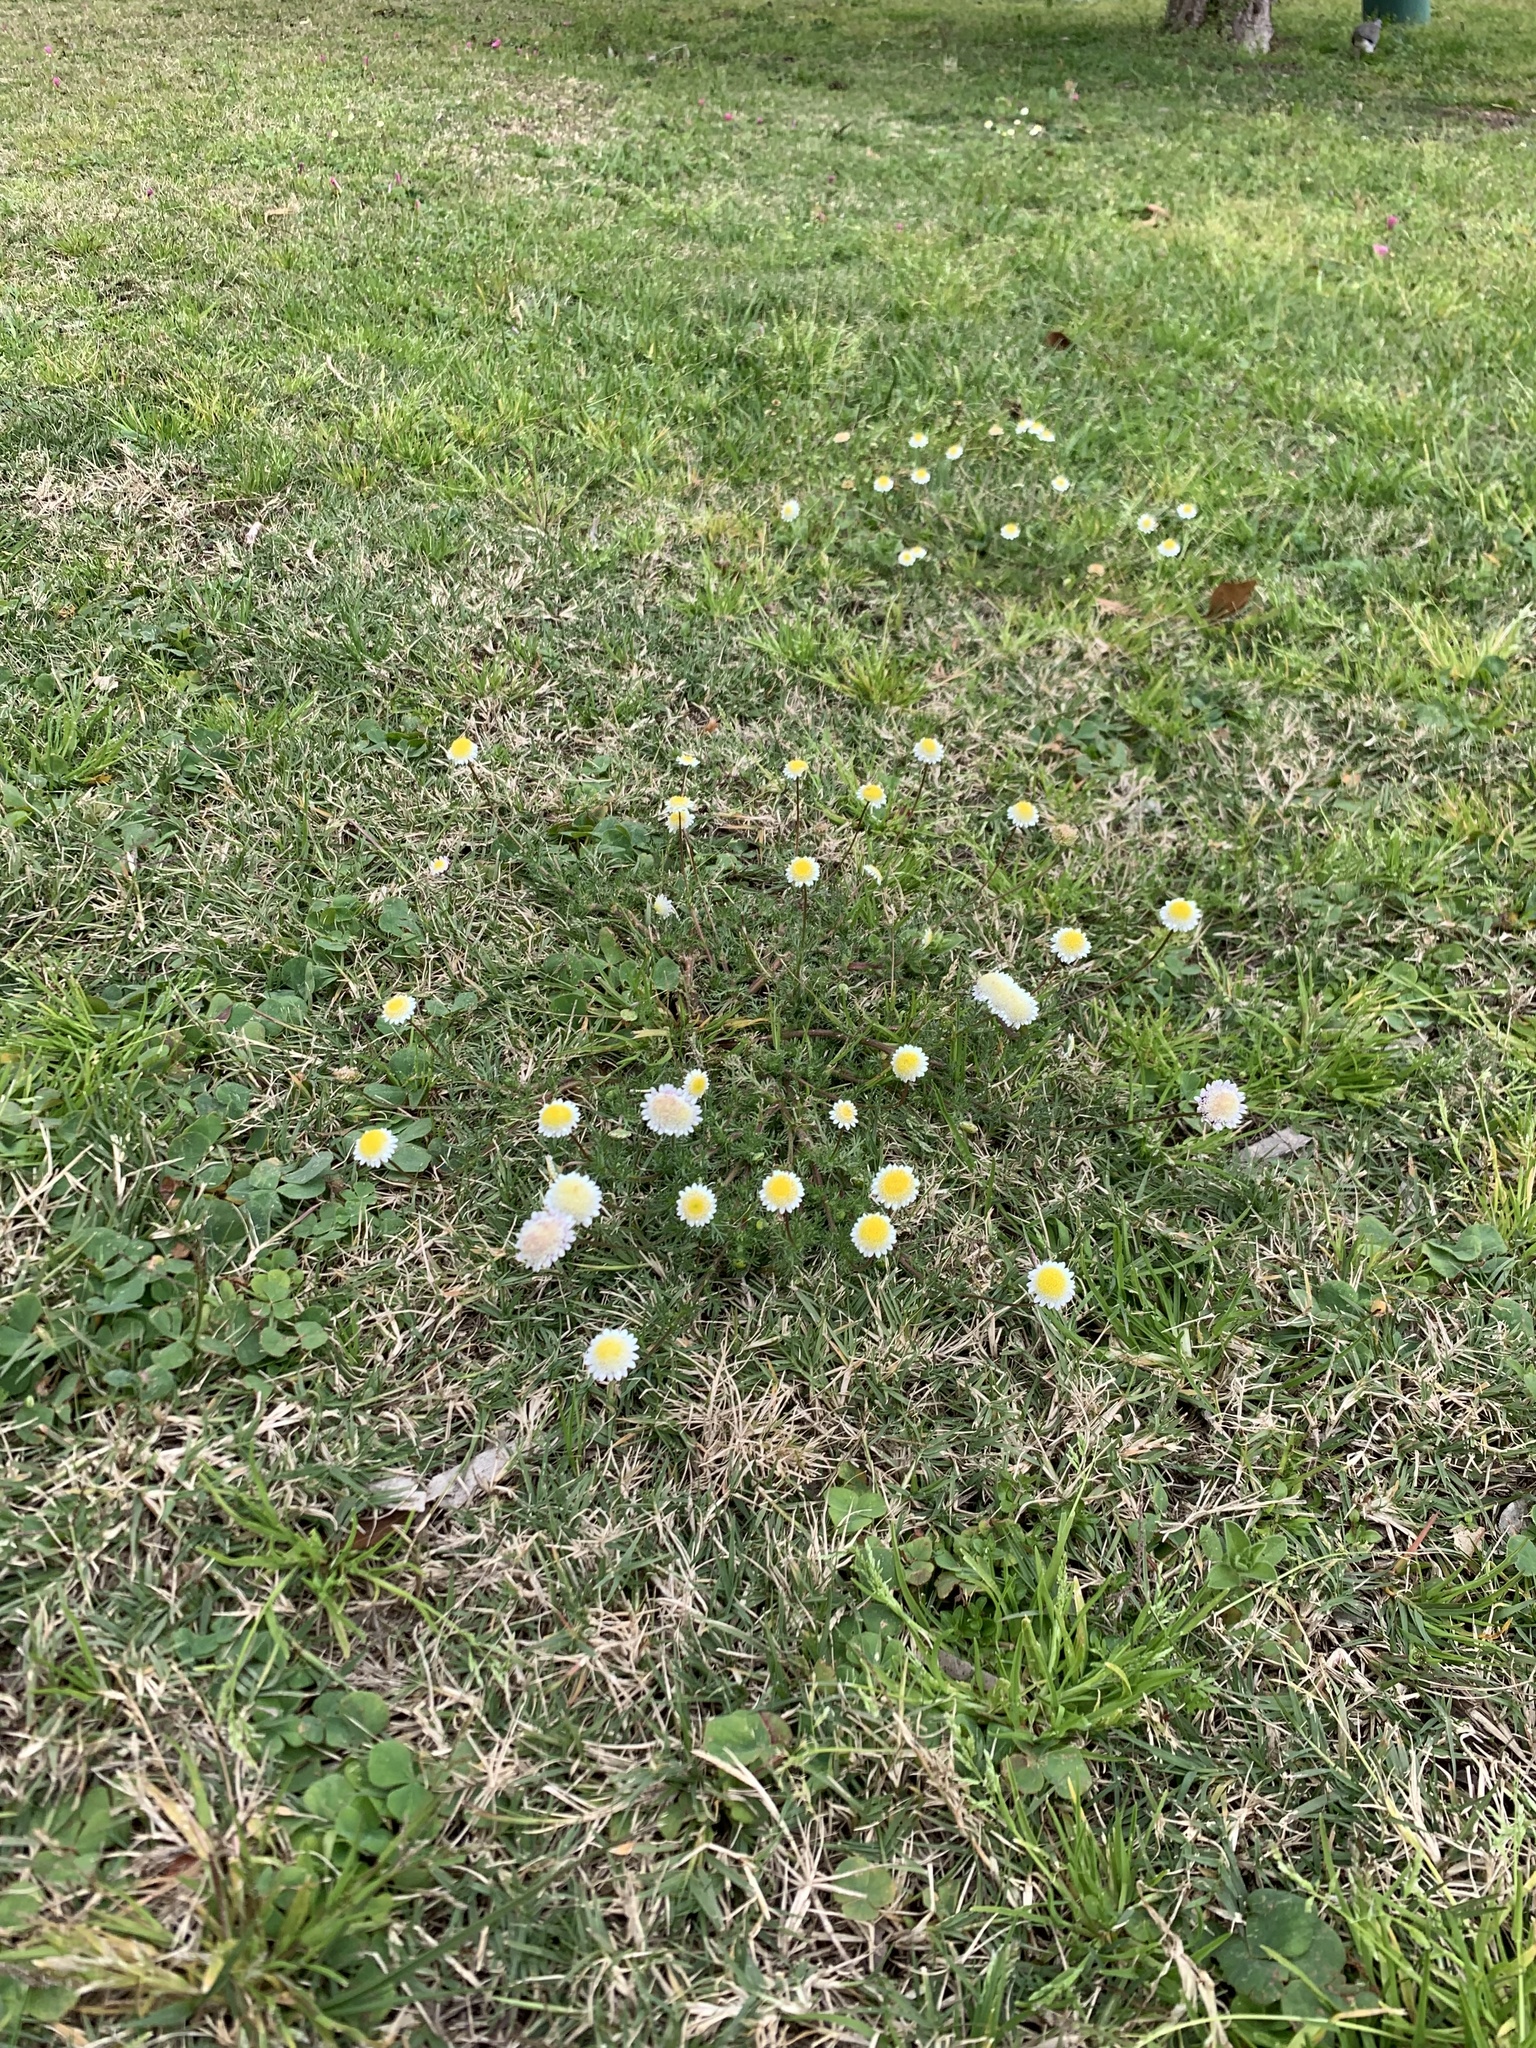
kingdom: Plantae
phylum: Tracheophyta
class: Magnoliopsida
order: Asterales
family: Asteraceae
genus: Cotula
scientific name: Cotula turbinata
